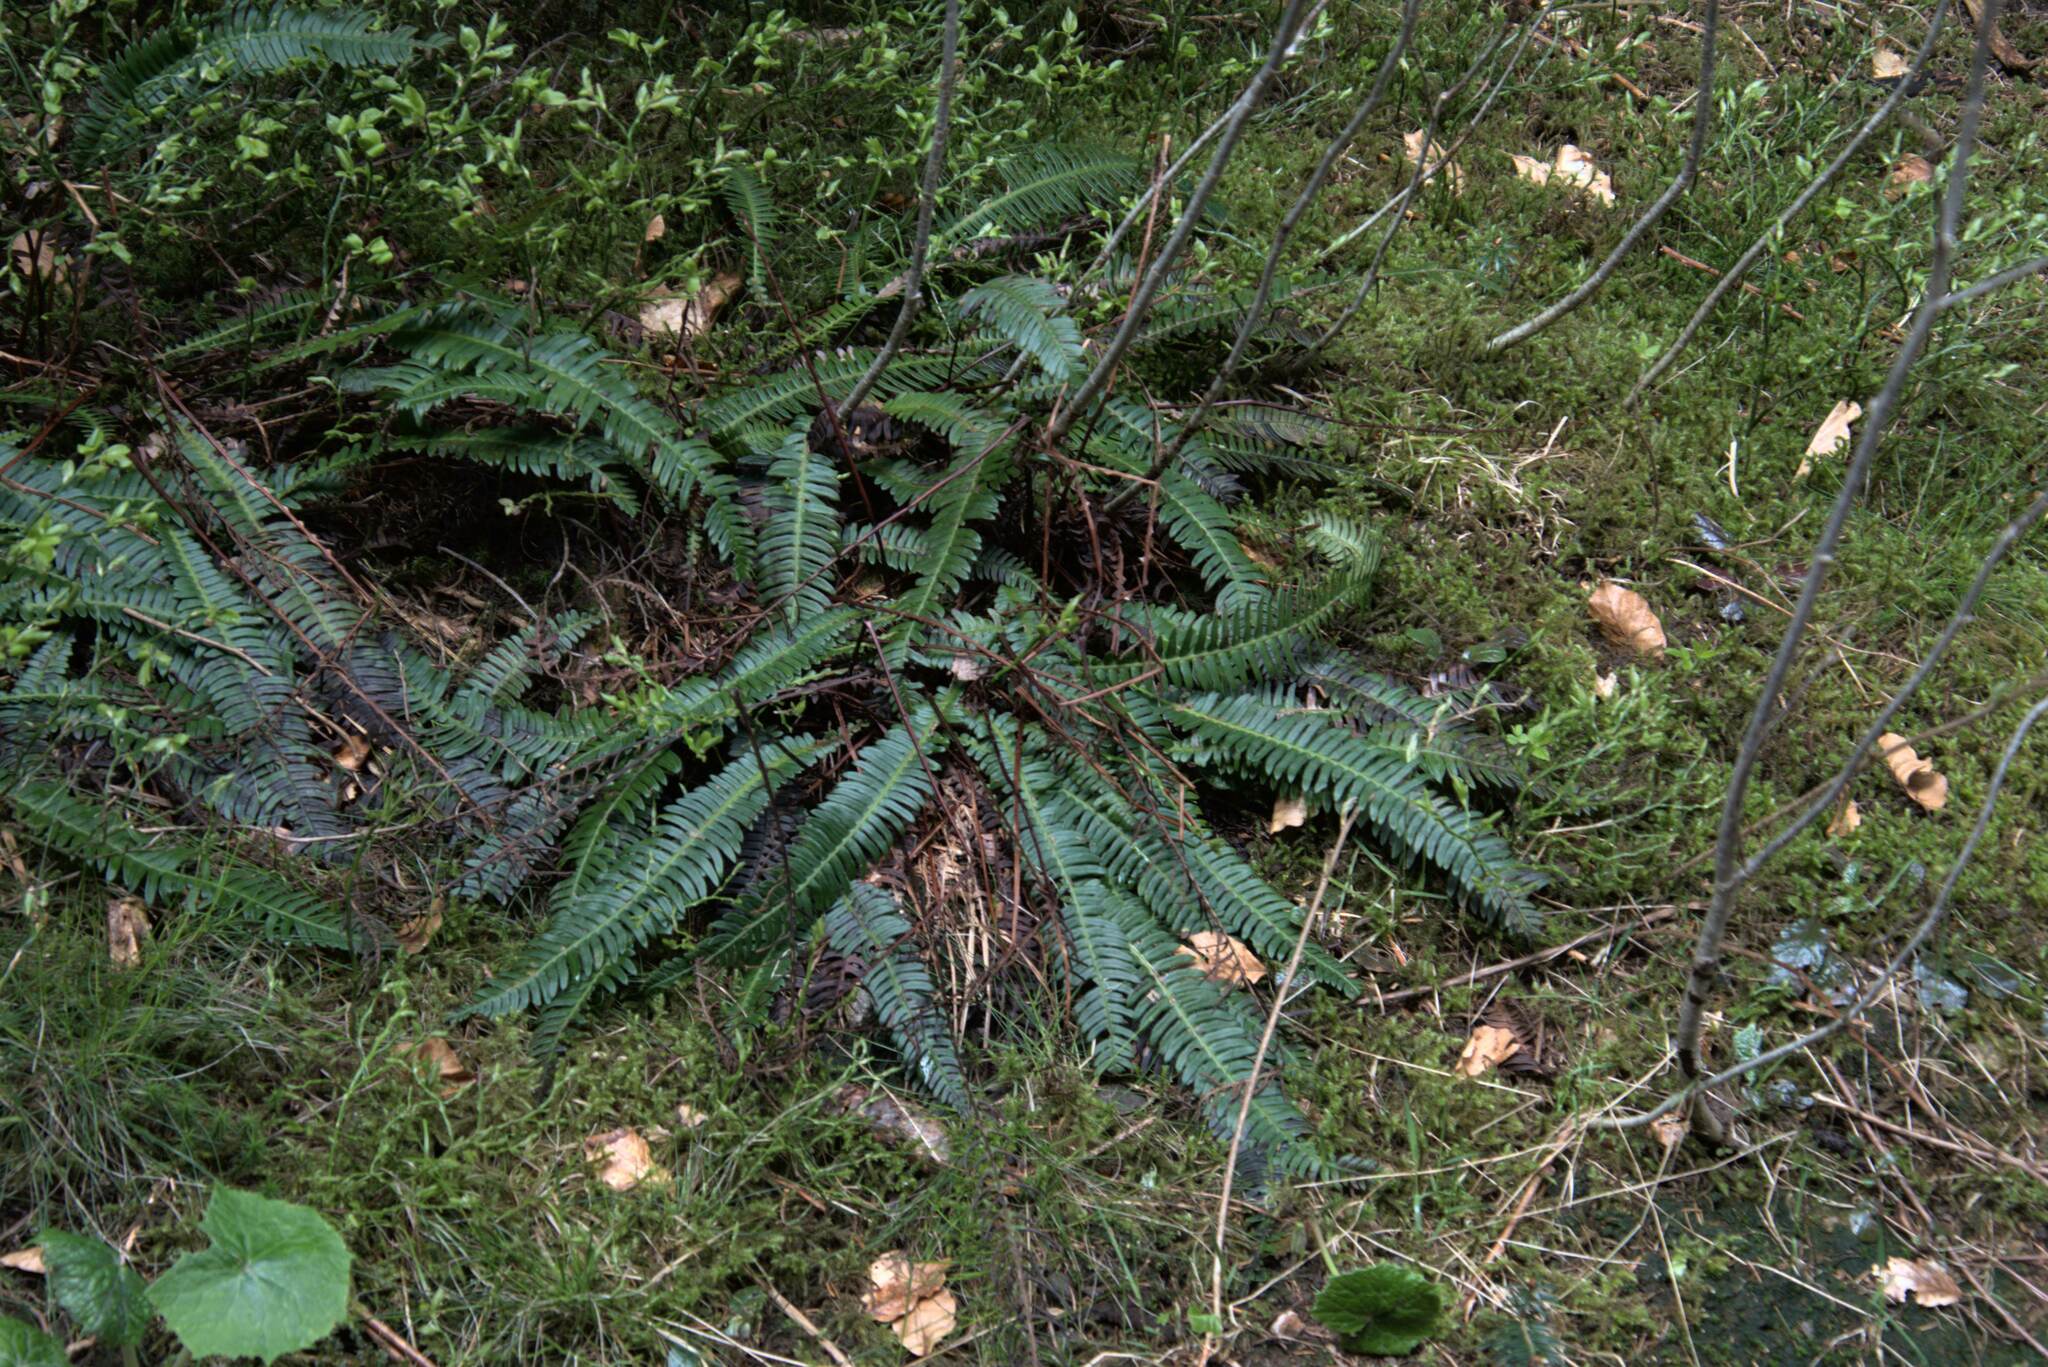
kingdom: Plantae
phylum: Tracheophyta
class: Polypodiopsida
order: Polypodiales
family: Blechnaceae
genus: Struthiopteris
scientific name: Struthiopteris spicant
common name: Deer fern
